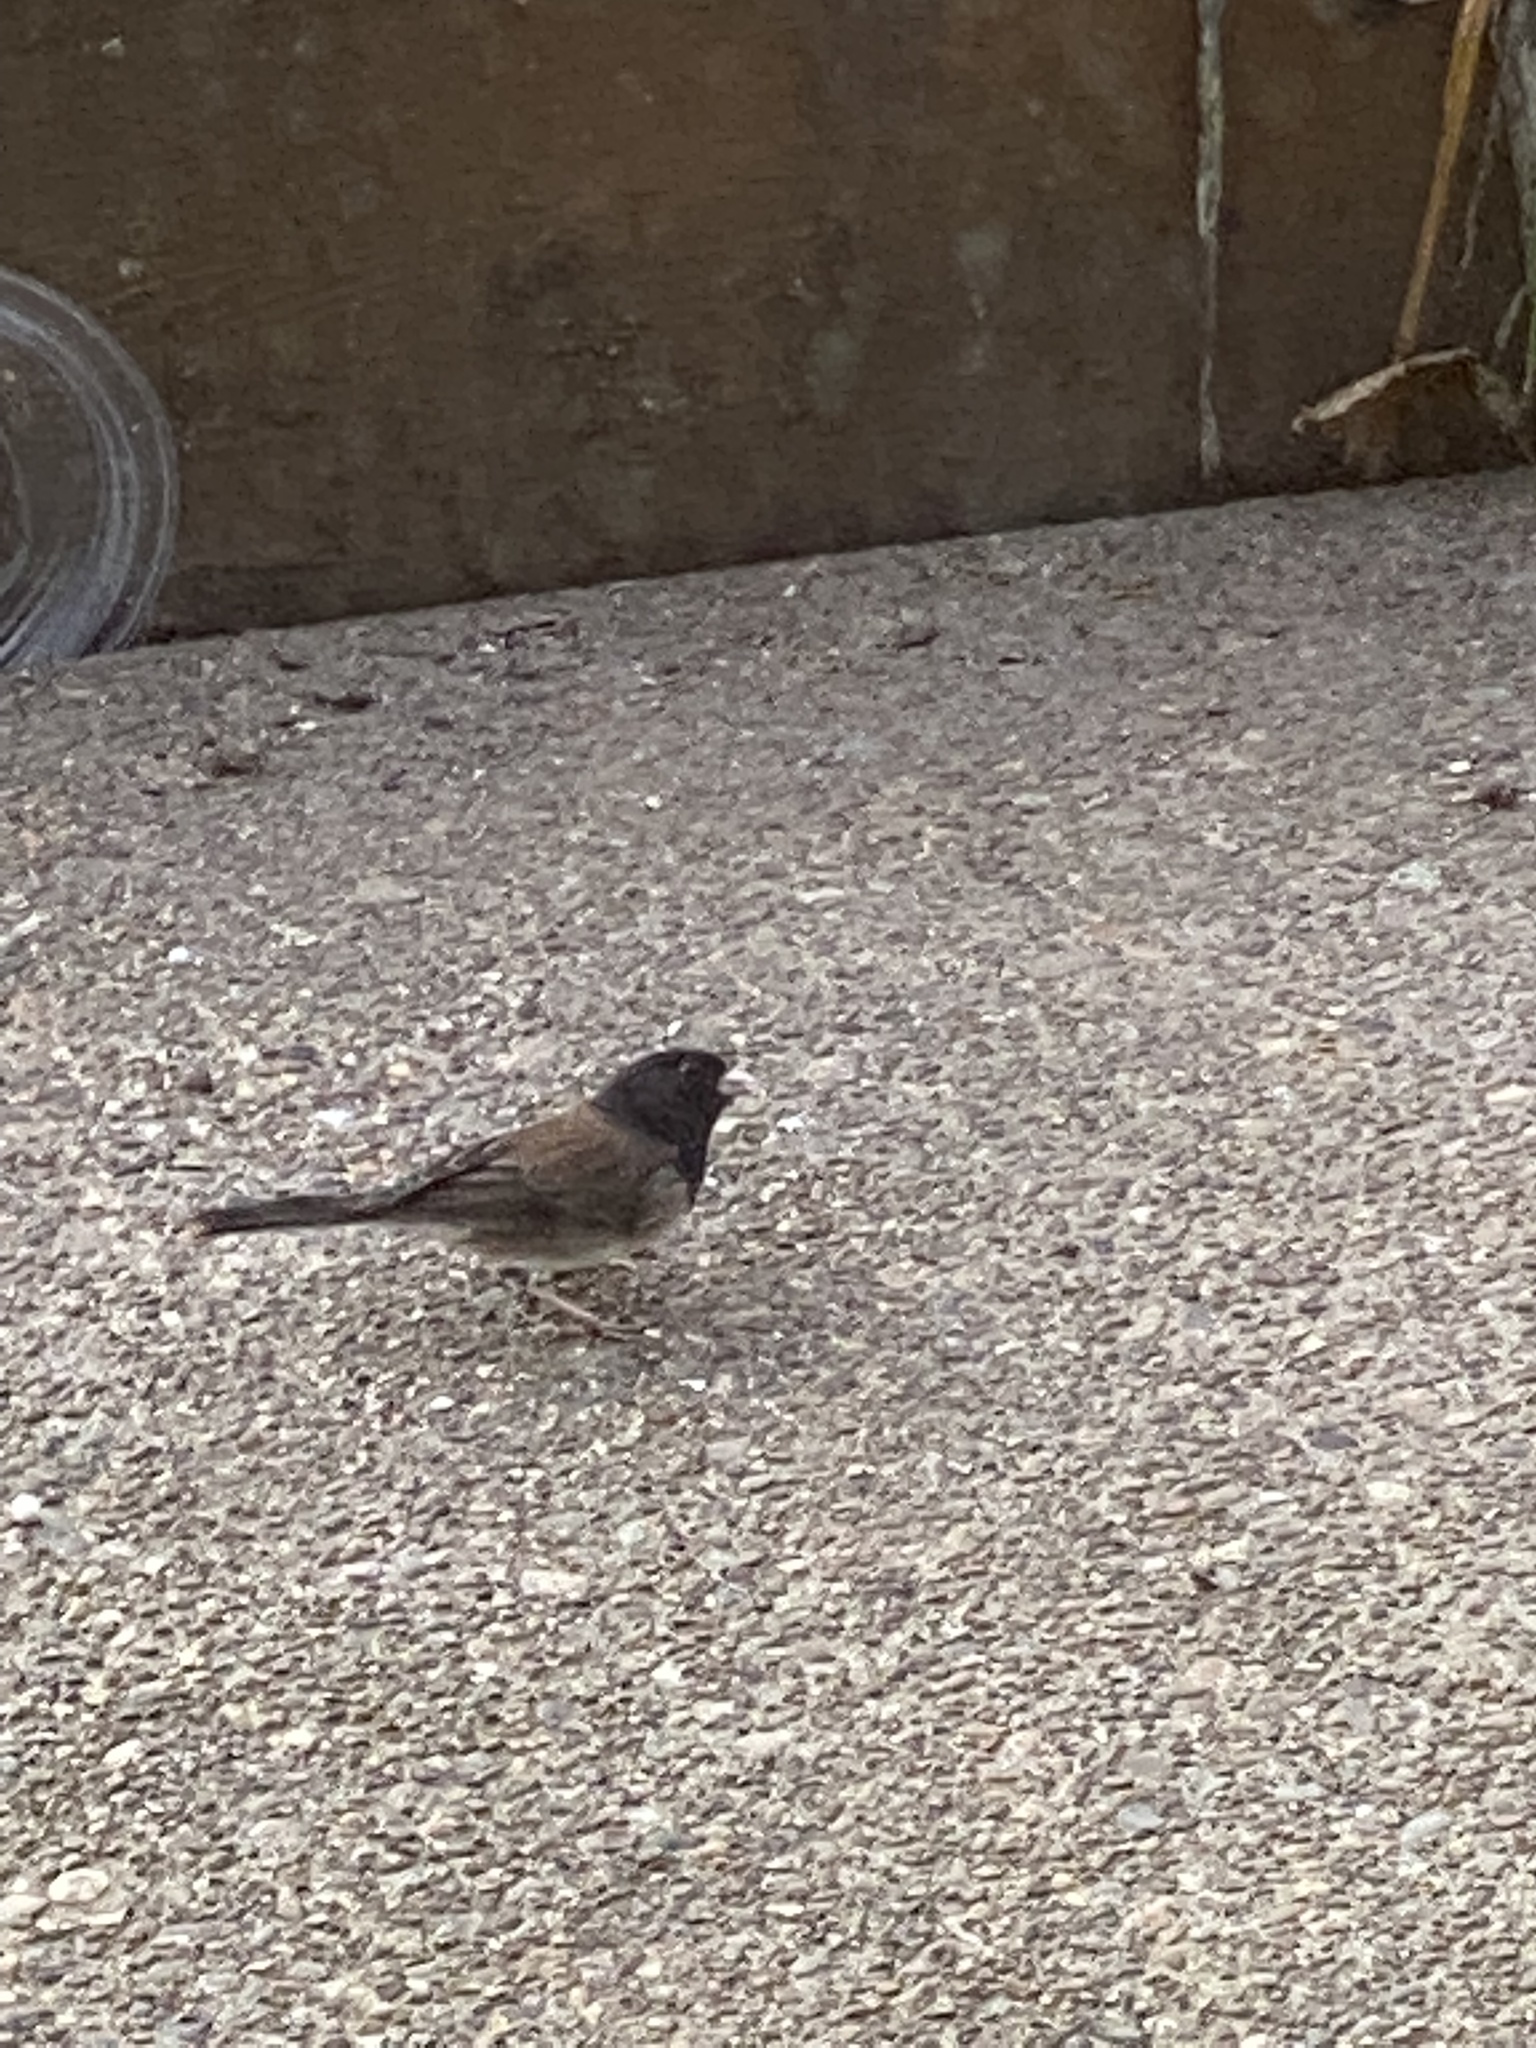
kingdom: Animalia
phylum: Chordata
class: Aves
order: Passeriformes
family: Passerellidae
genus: Junco
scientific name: Junco hyemalis
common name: Dark-eyed junco
